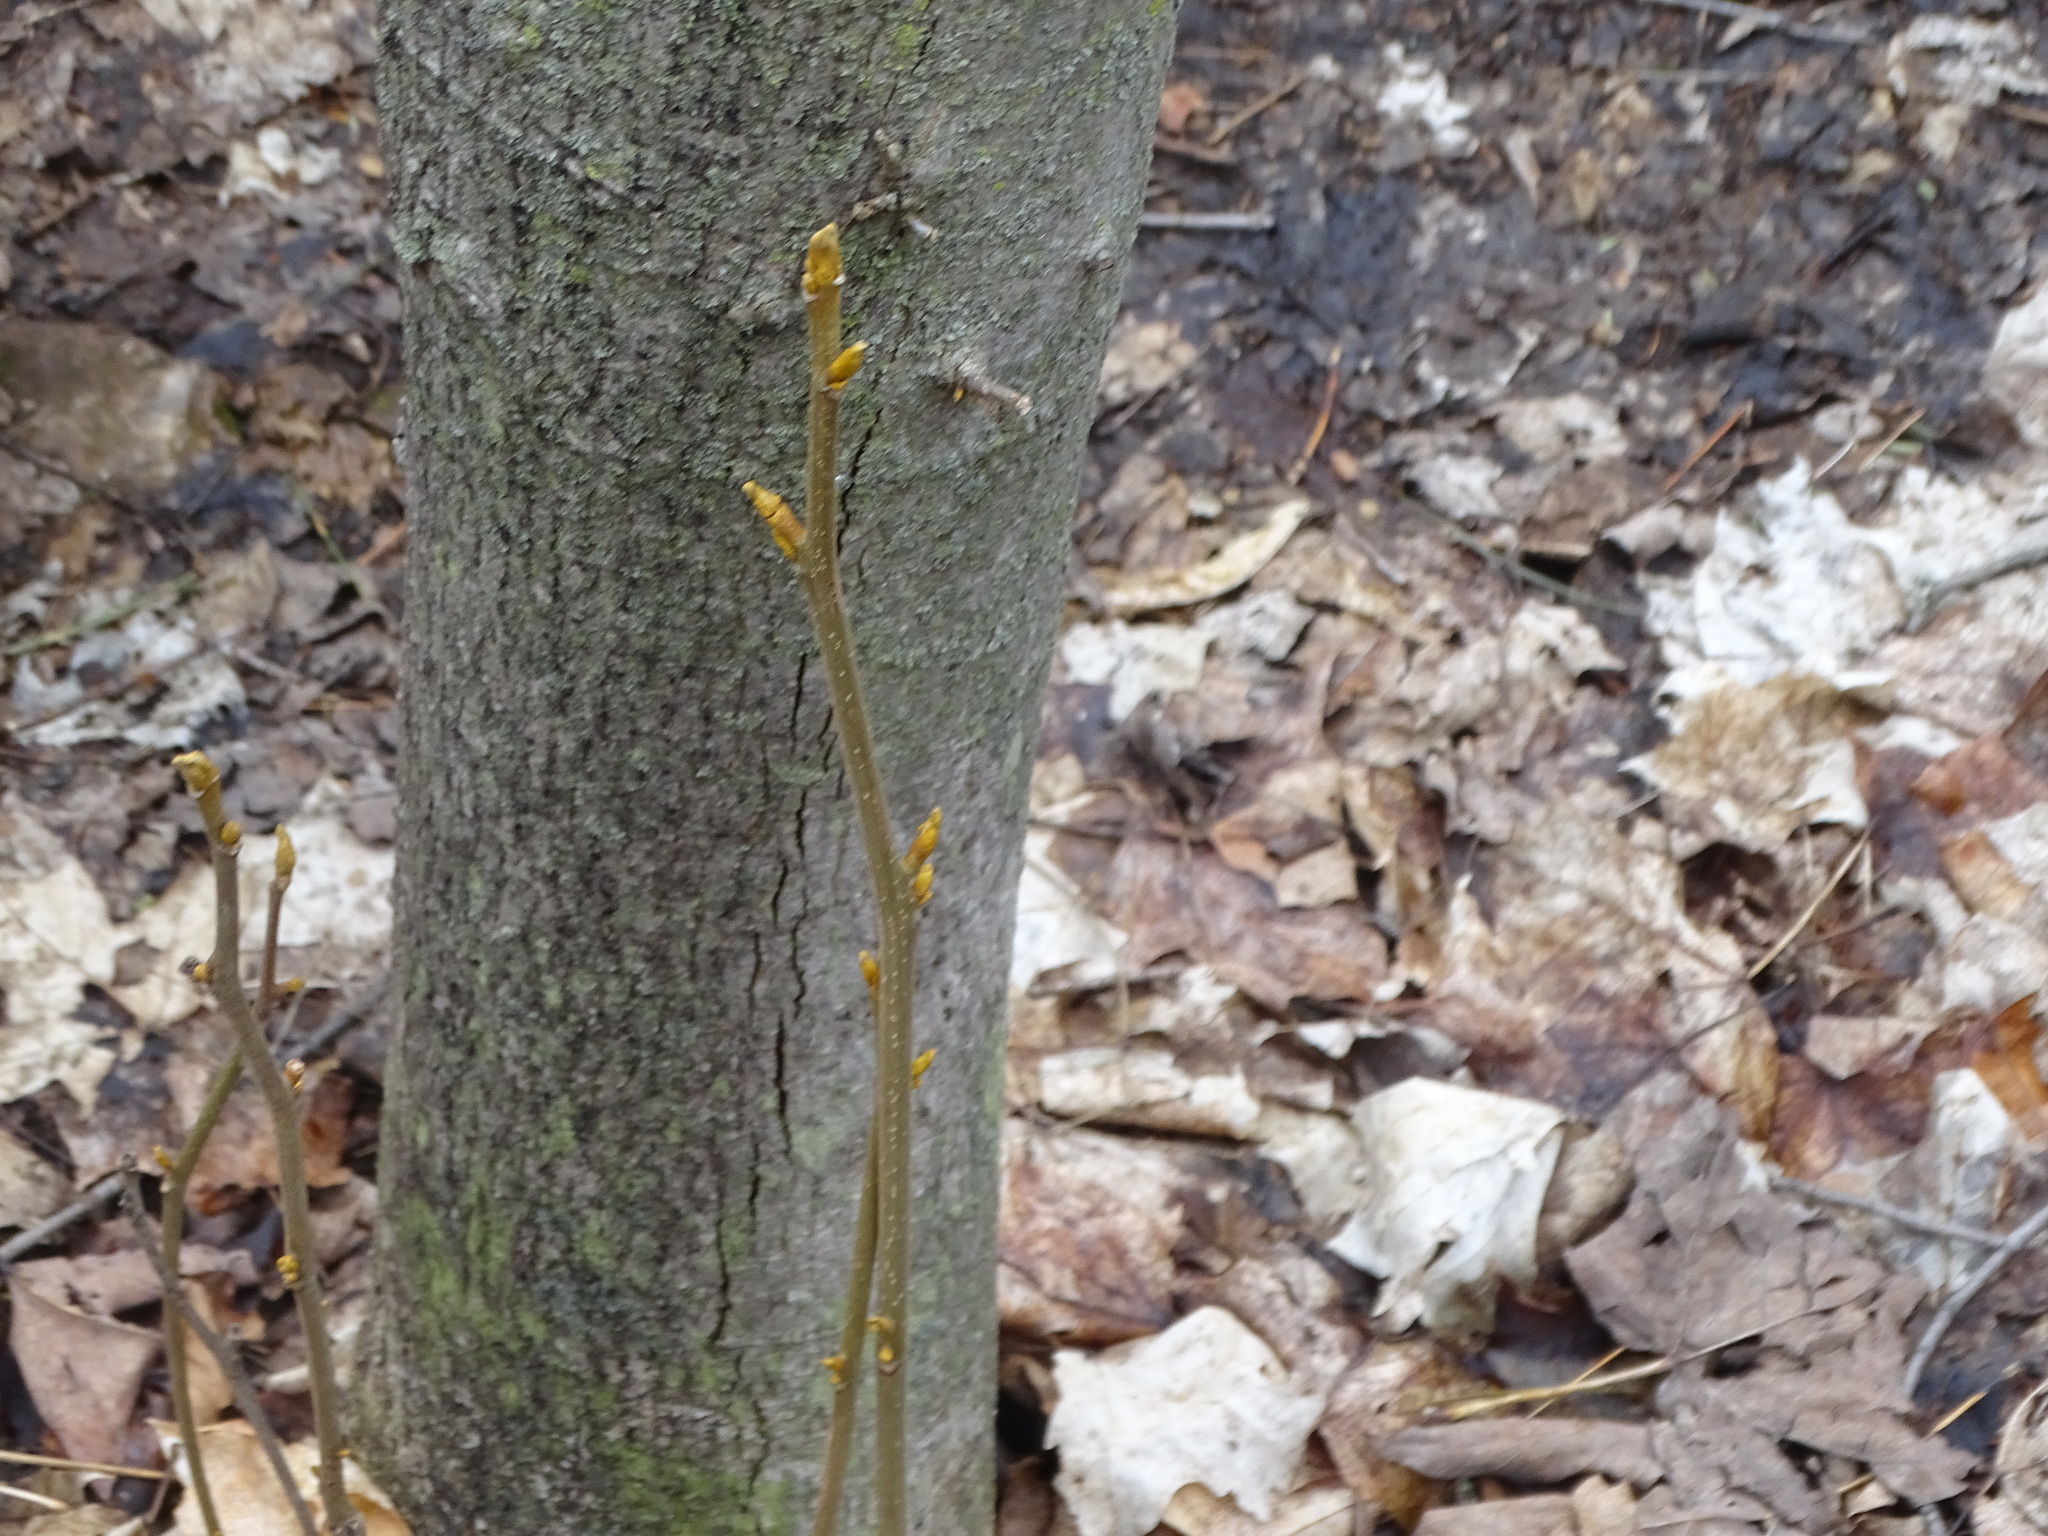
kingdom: Plantae
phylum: Tracheophyta
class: Magnoliopsida
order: Fagales
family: Juglandaceae
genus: Carya
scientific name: Carya cordiformis
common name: Bitternut hickory
